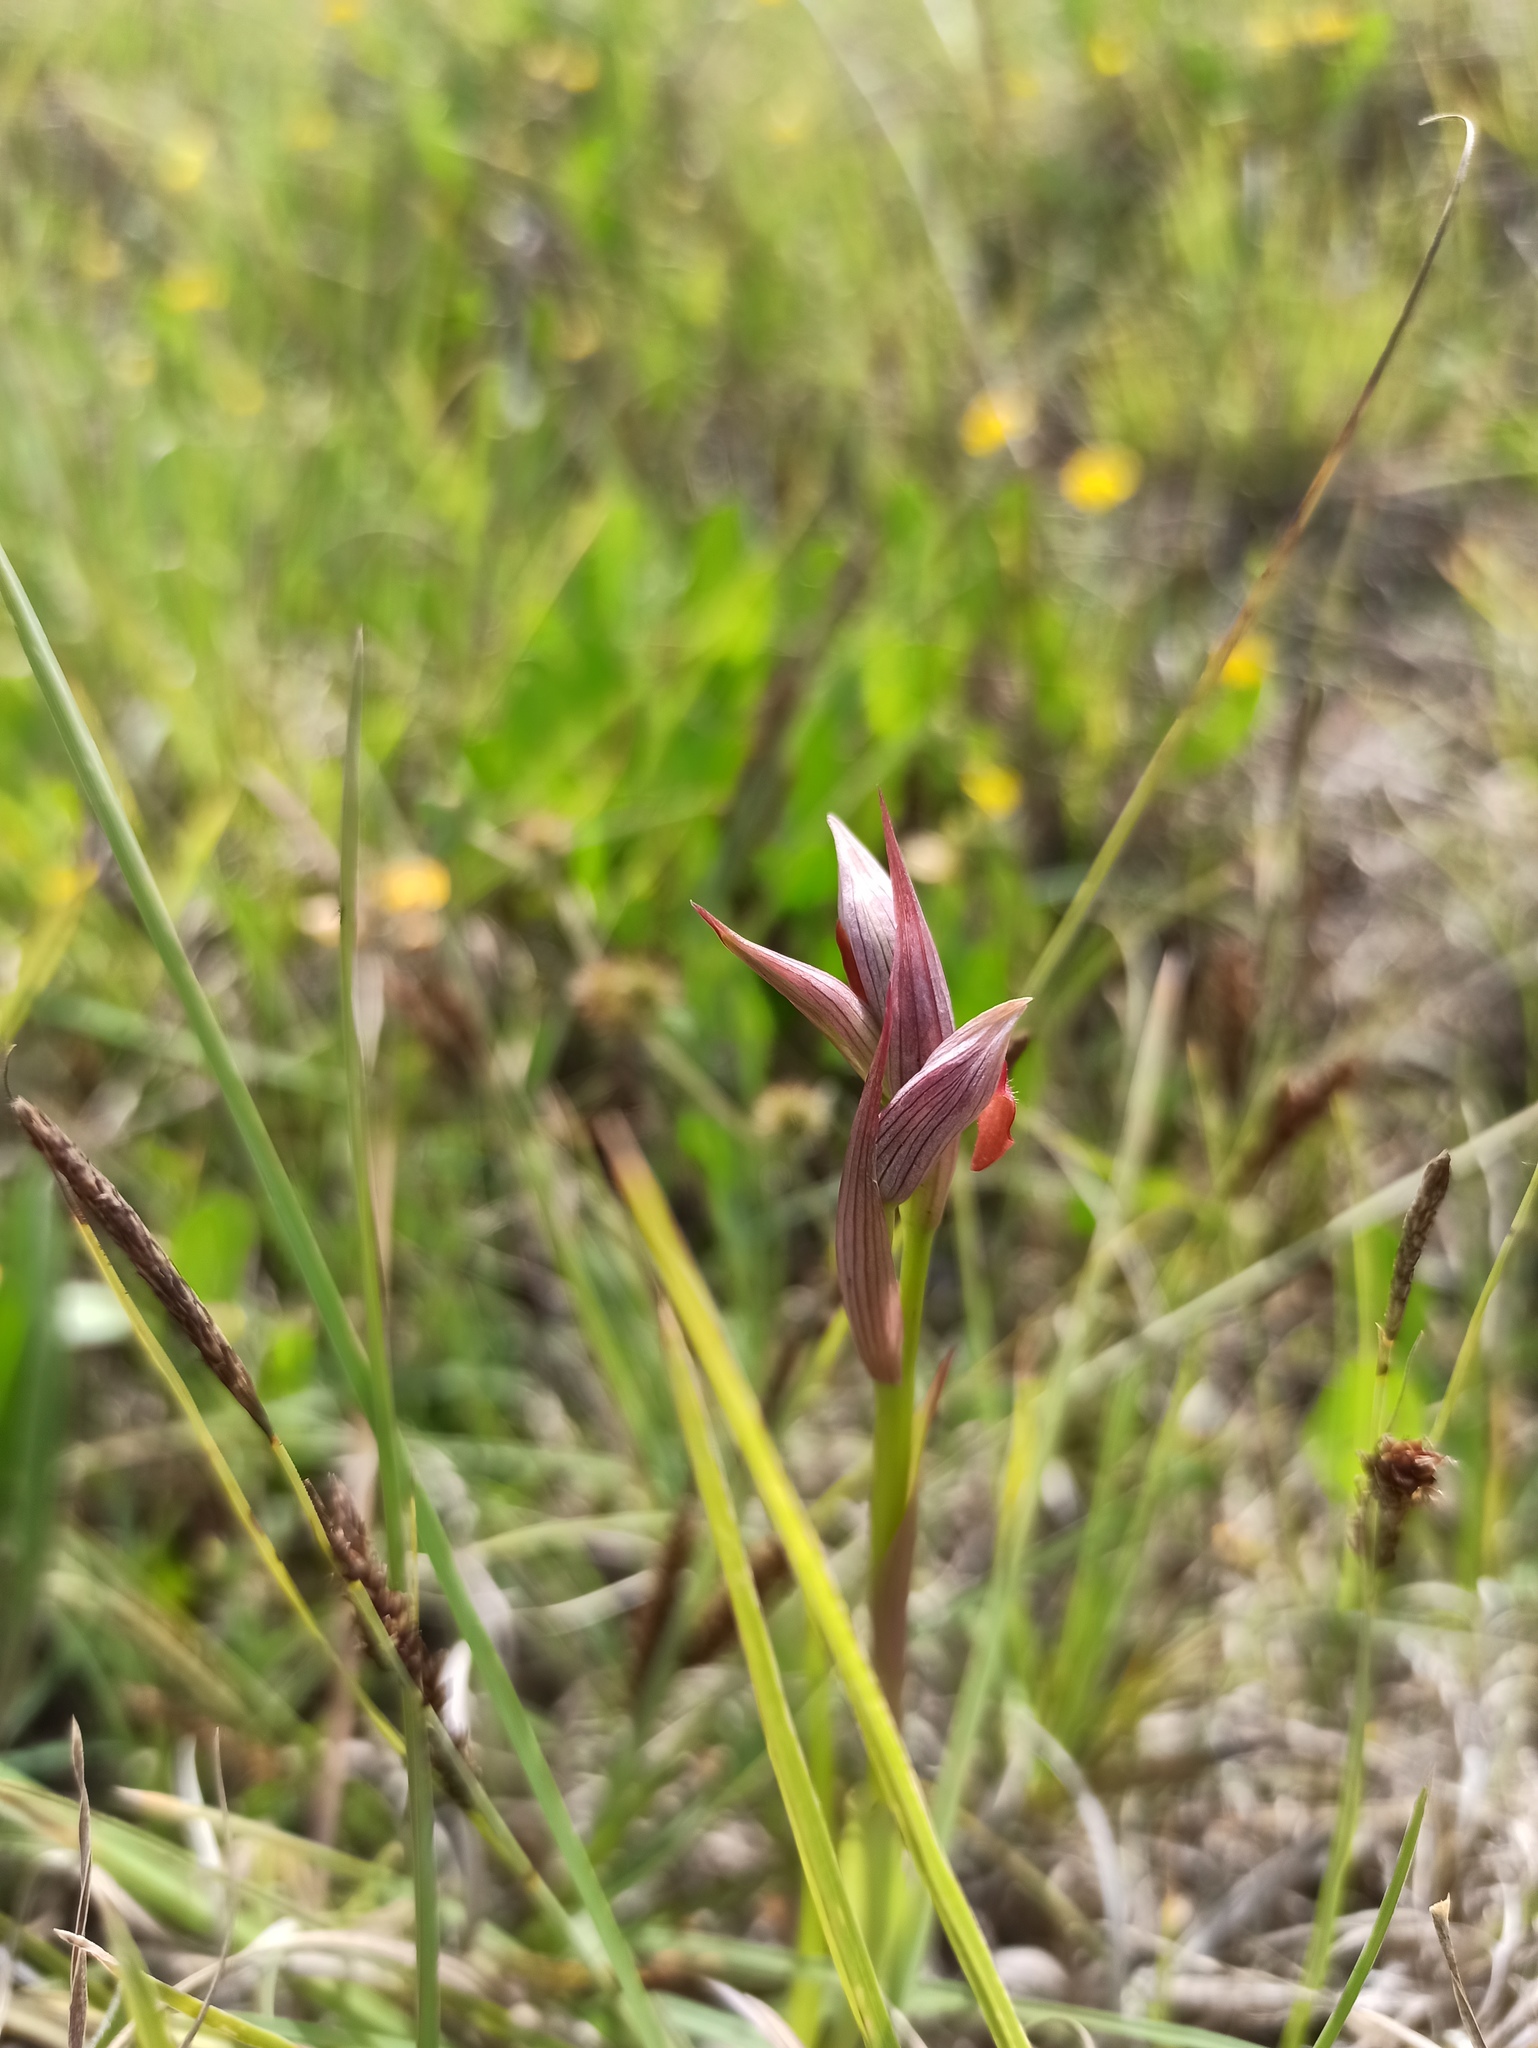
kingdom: Plantae
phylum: Tracheophyta
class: Liliopsida
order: Asparagales
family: Orchidaceae
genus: Serapias
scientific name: Serapias parviflora
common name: Small-flowered tongue-orchid
